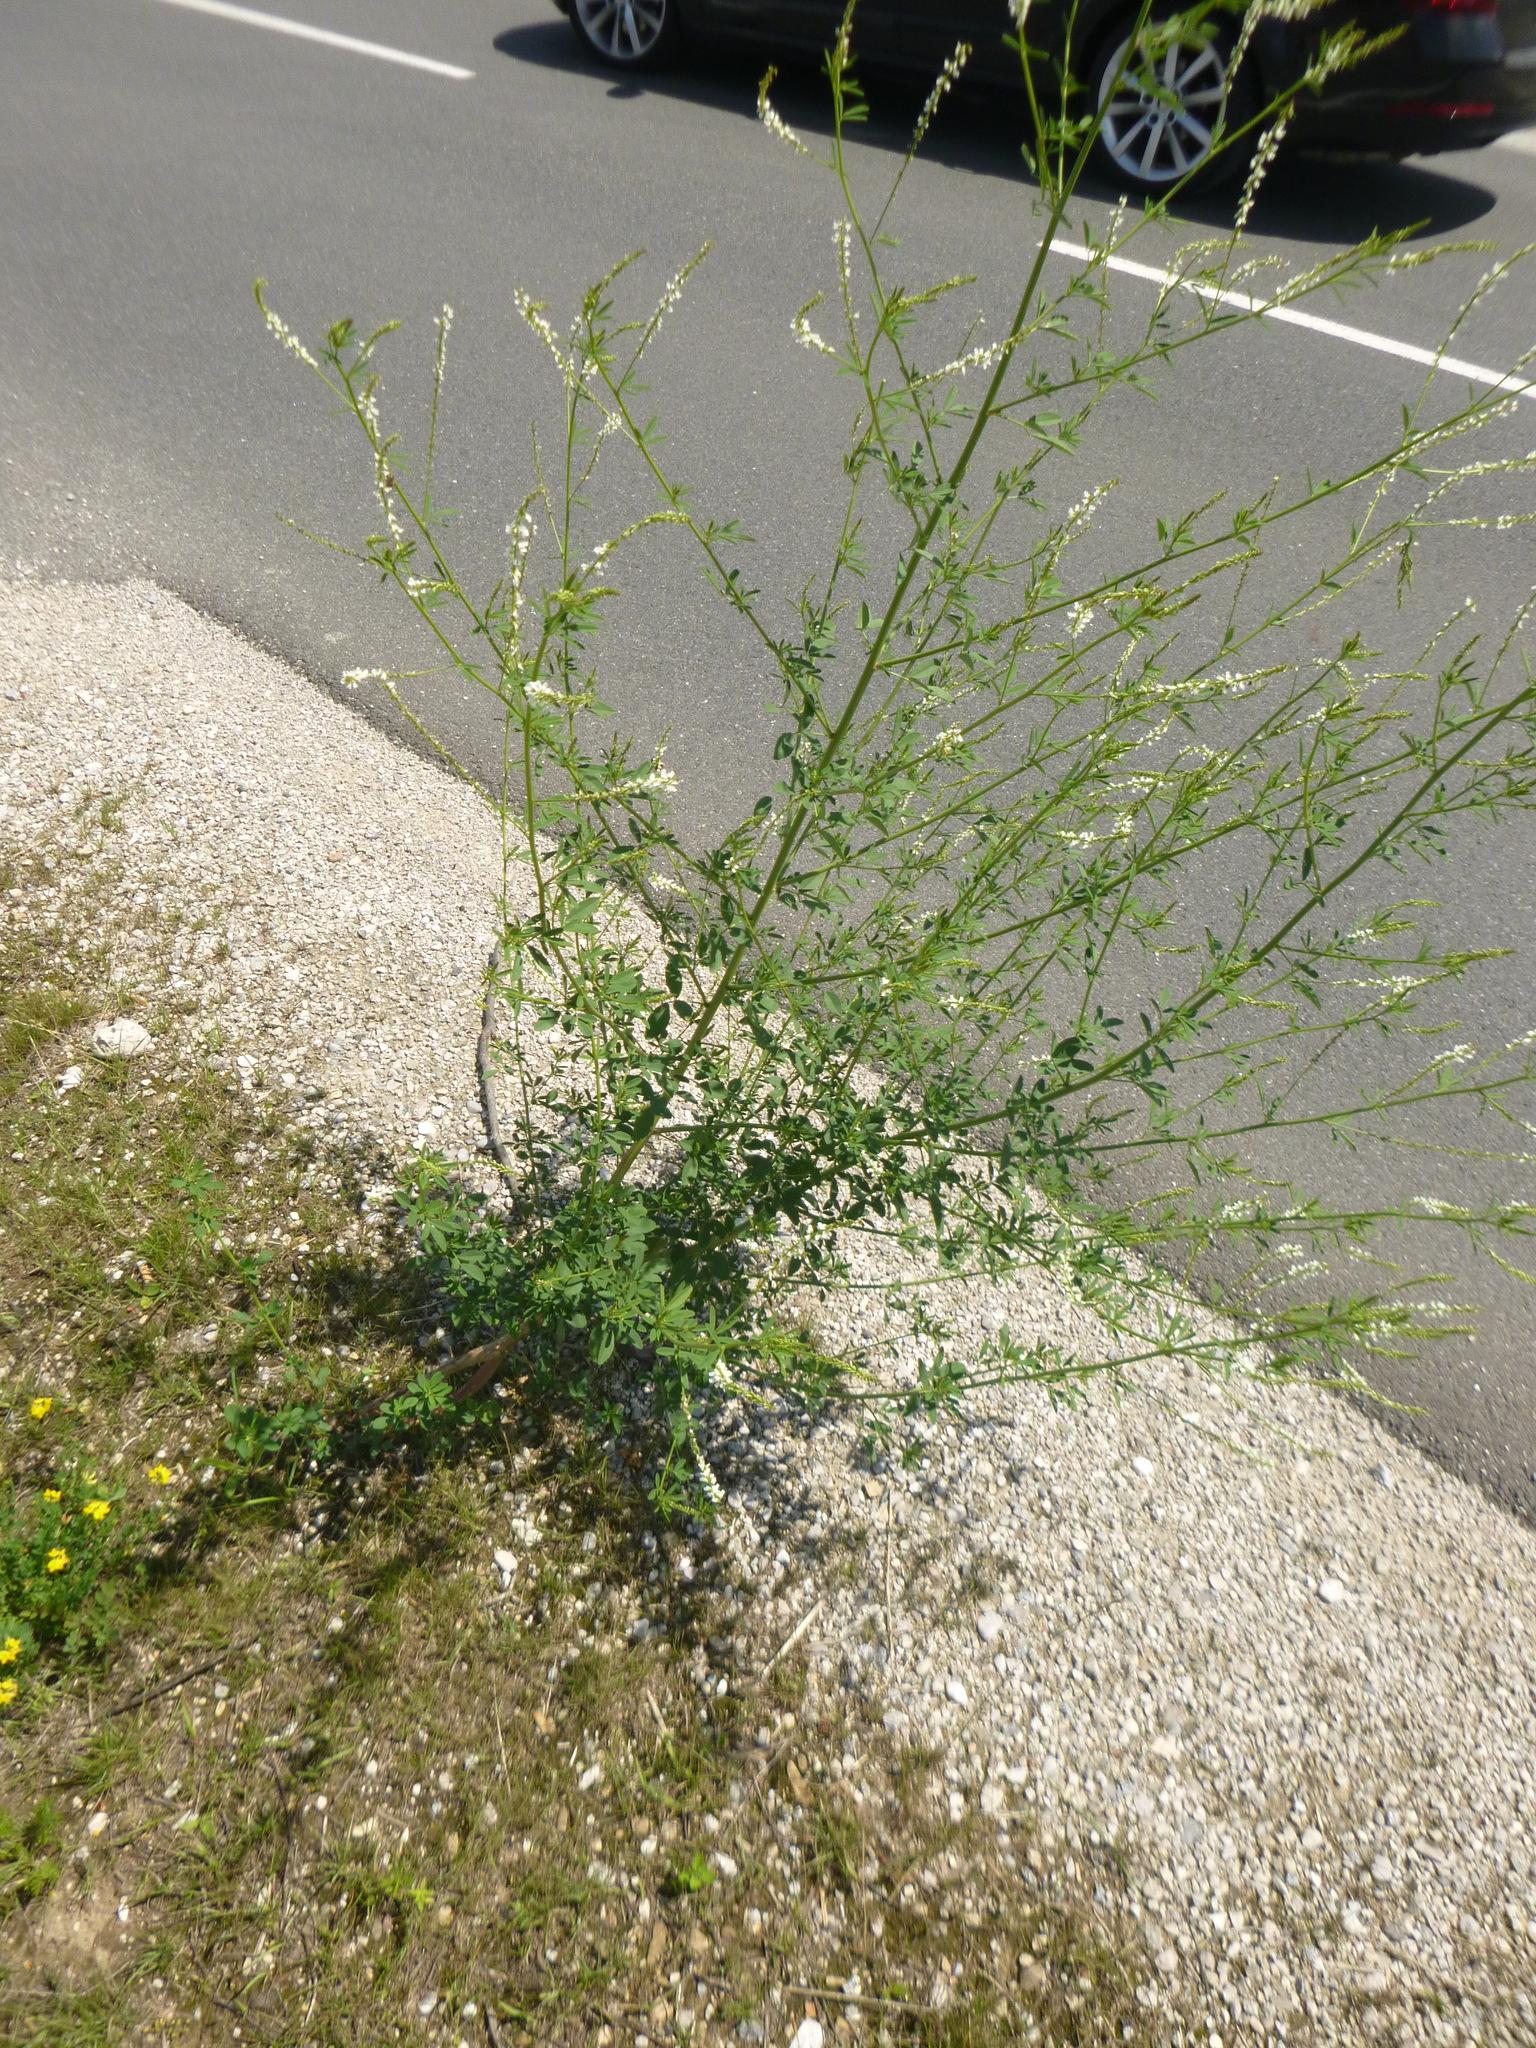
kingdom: Plantae
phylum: Tracheophyta
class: Magnoliopsida
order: Fabales
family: Fabaceae
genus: Melilotus
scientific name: Melilotus albus
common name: White melilot
